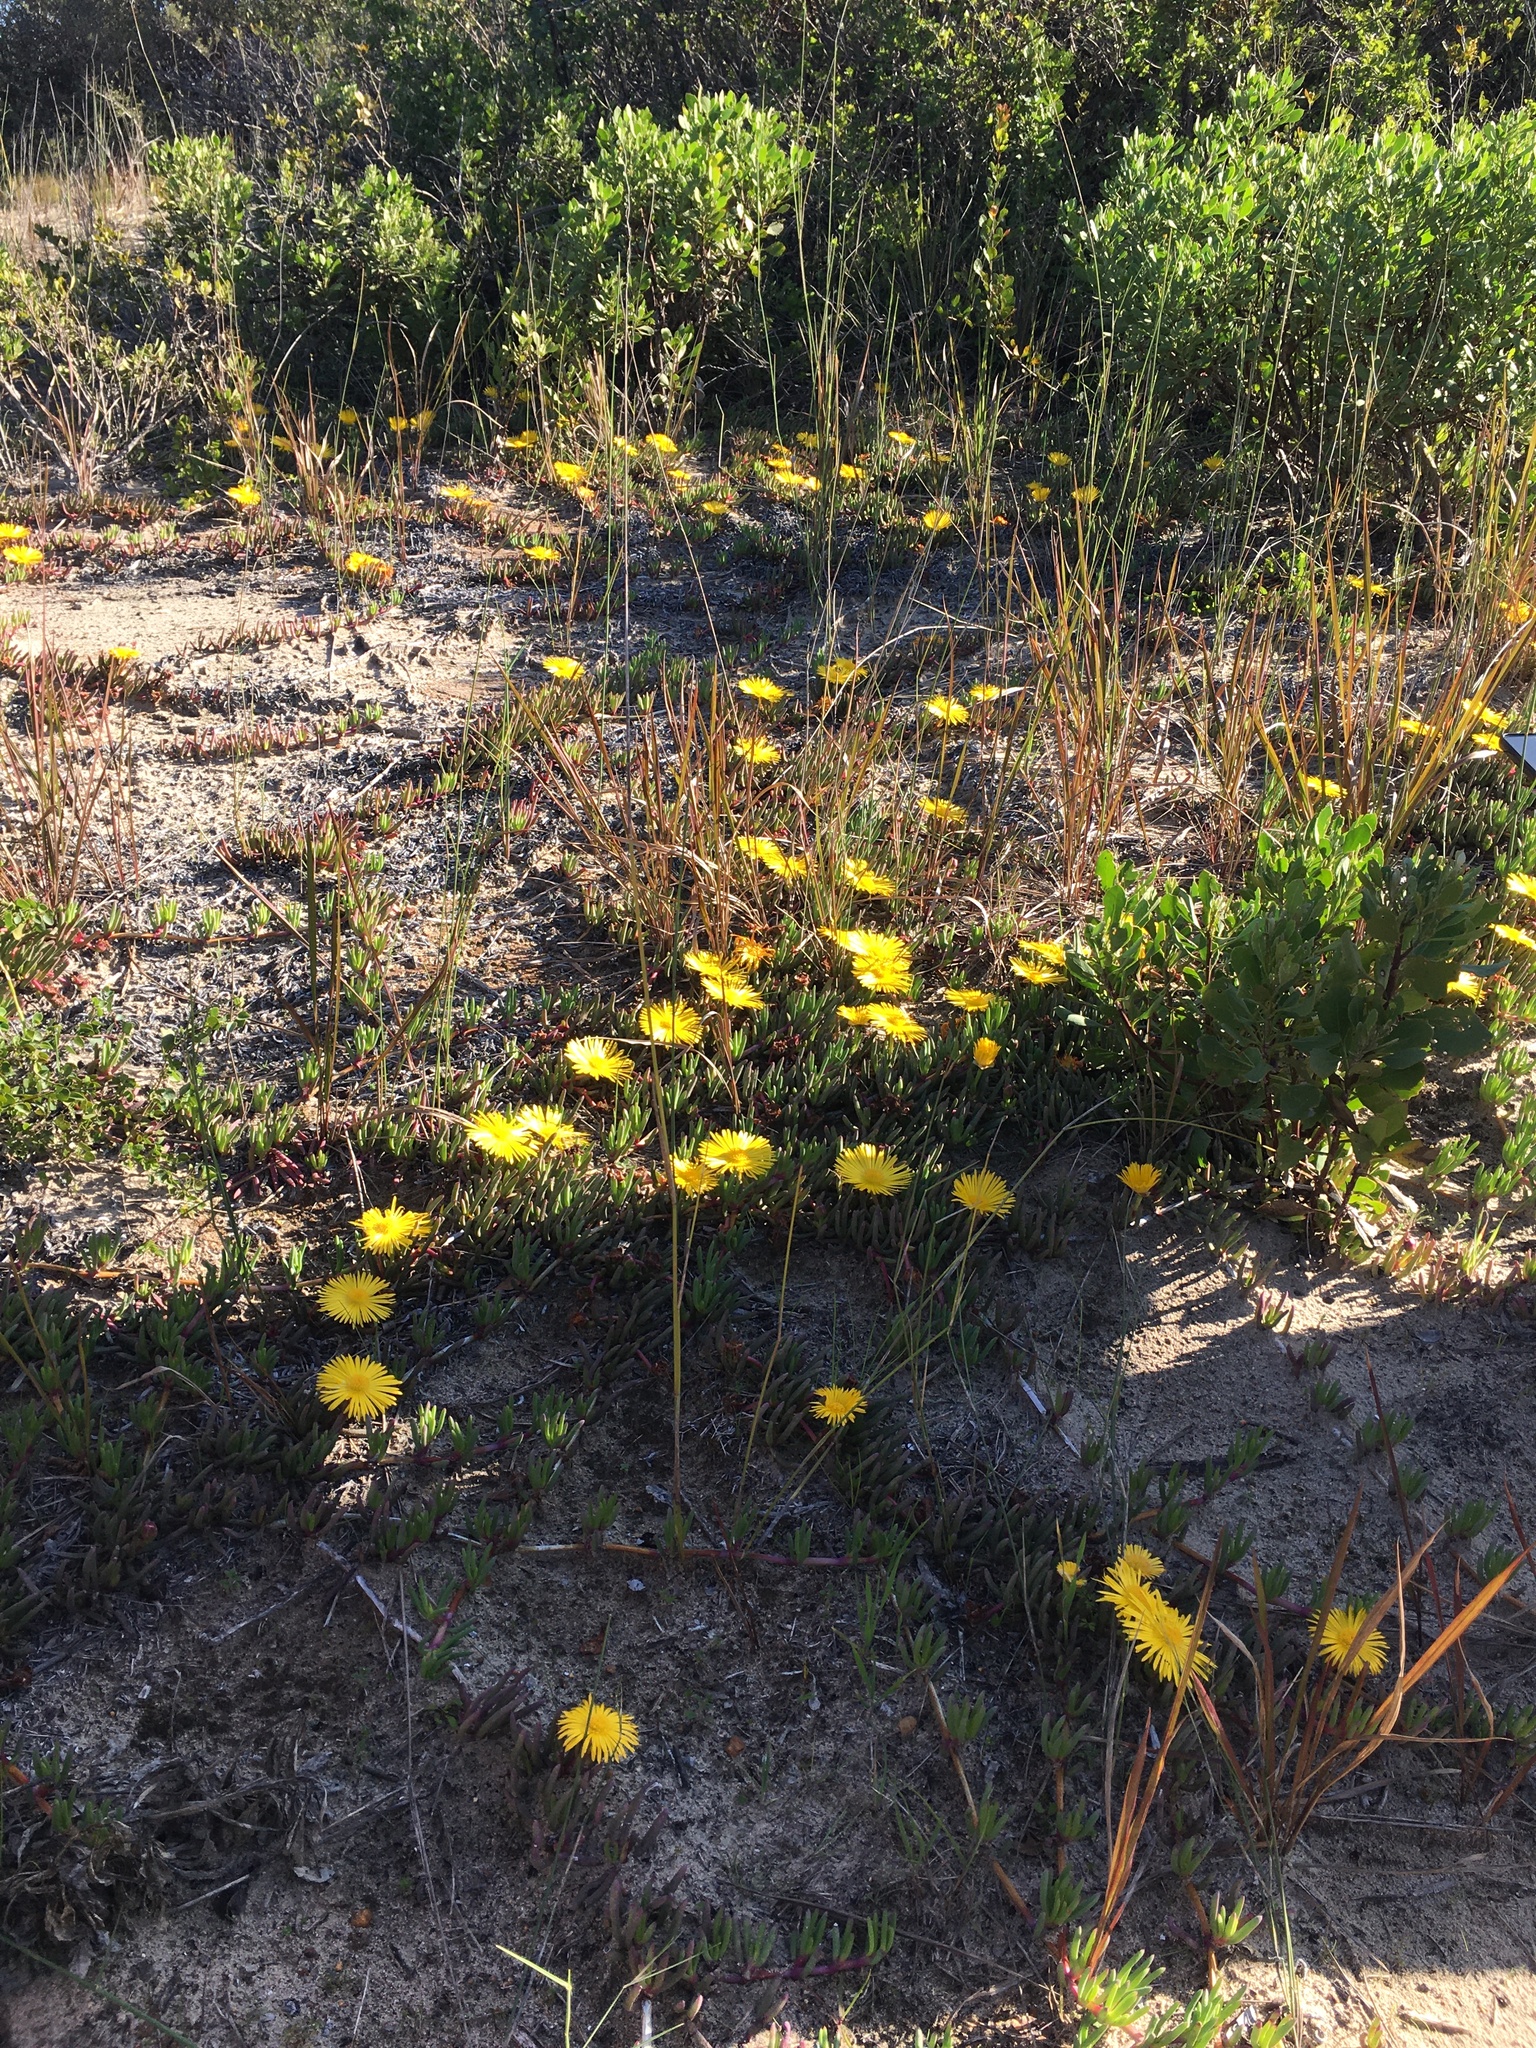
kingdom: Plantae
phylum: Tracheophyta
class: Magnoliopsida
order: Caryophyllales
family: Aizoaceae
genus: Jordaaniella
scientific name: Jordaaniella dubia
